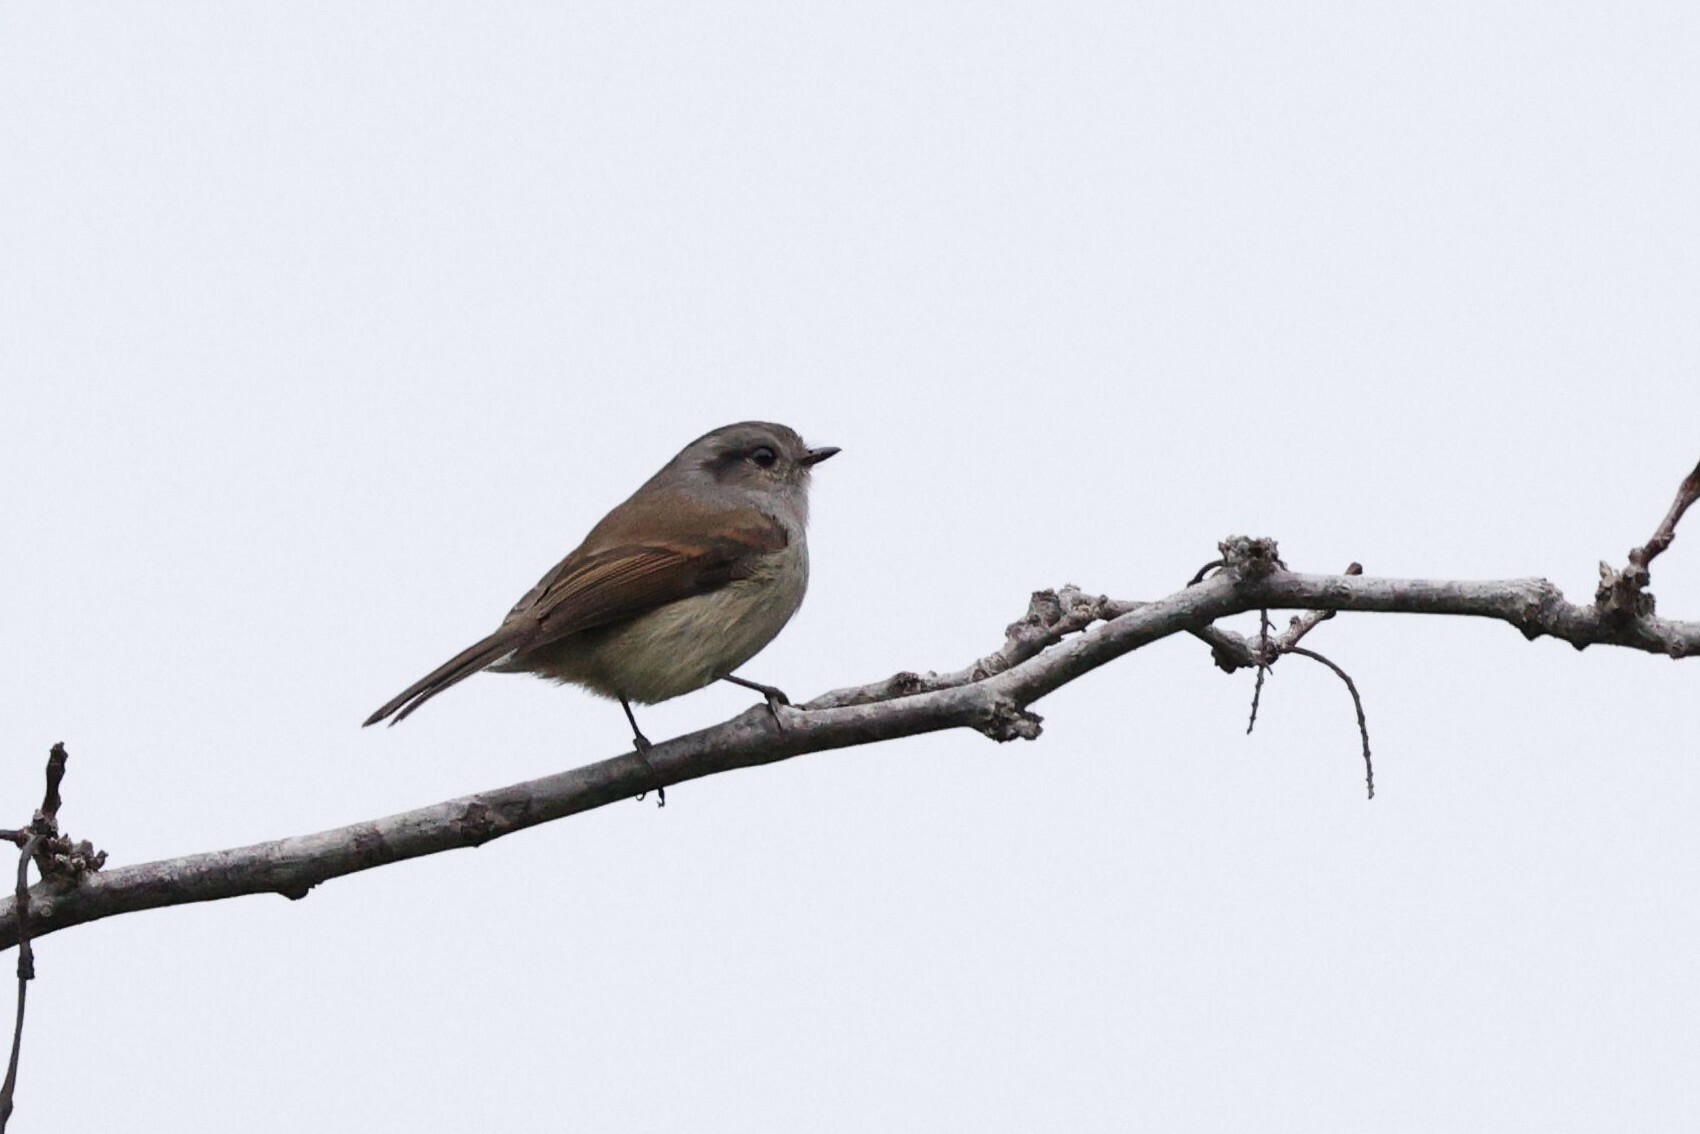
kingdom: Animalia
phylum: Chordata
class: Aves
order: Passeriformes
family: Tyrannidae
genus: Colorhamphus
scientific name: Colorhamphus parvirostris
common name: Patagonian tyrant
